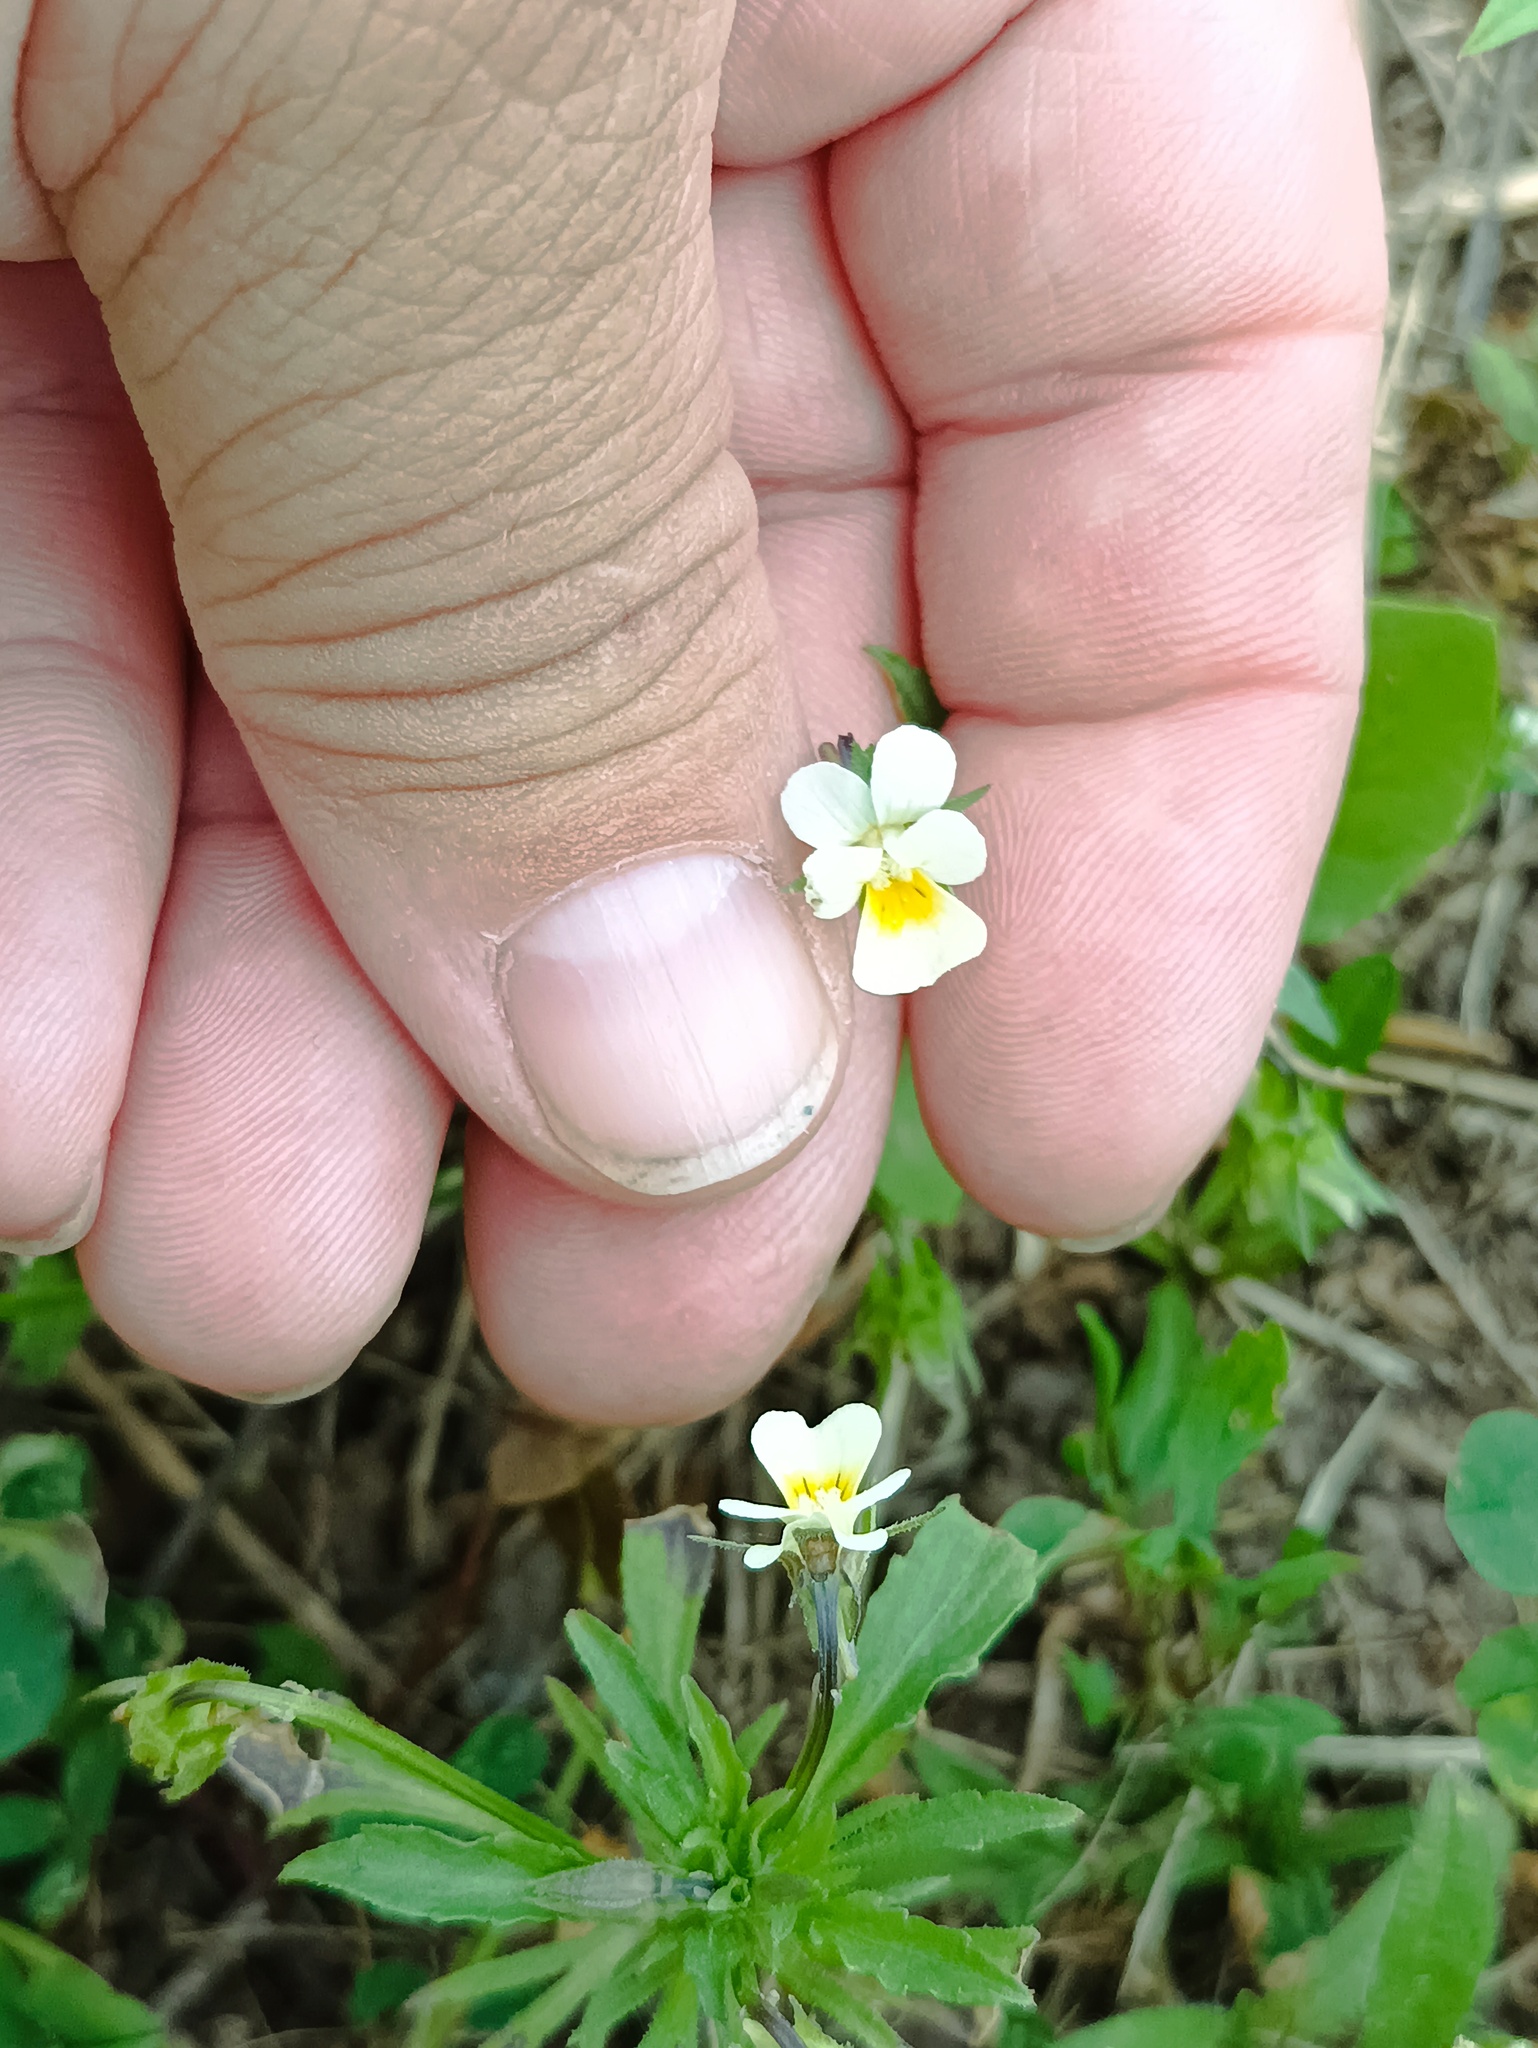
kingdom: Plantae
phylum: Tracheophyta
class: Magnoliopsida
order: Malpighiales
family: Violaceae
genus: Viola
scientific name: Viola arvensis
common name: Field pansy
